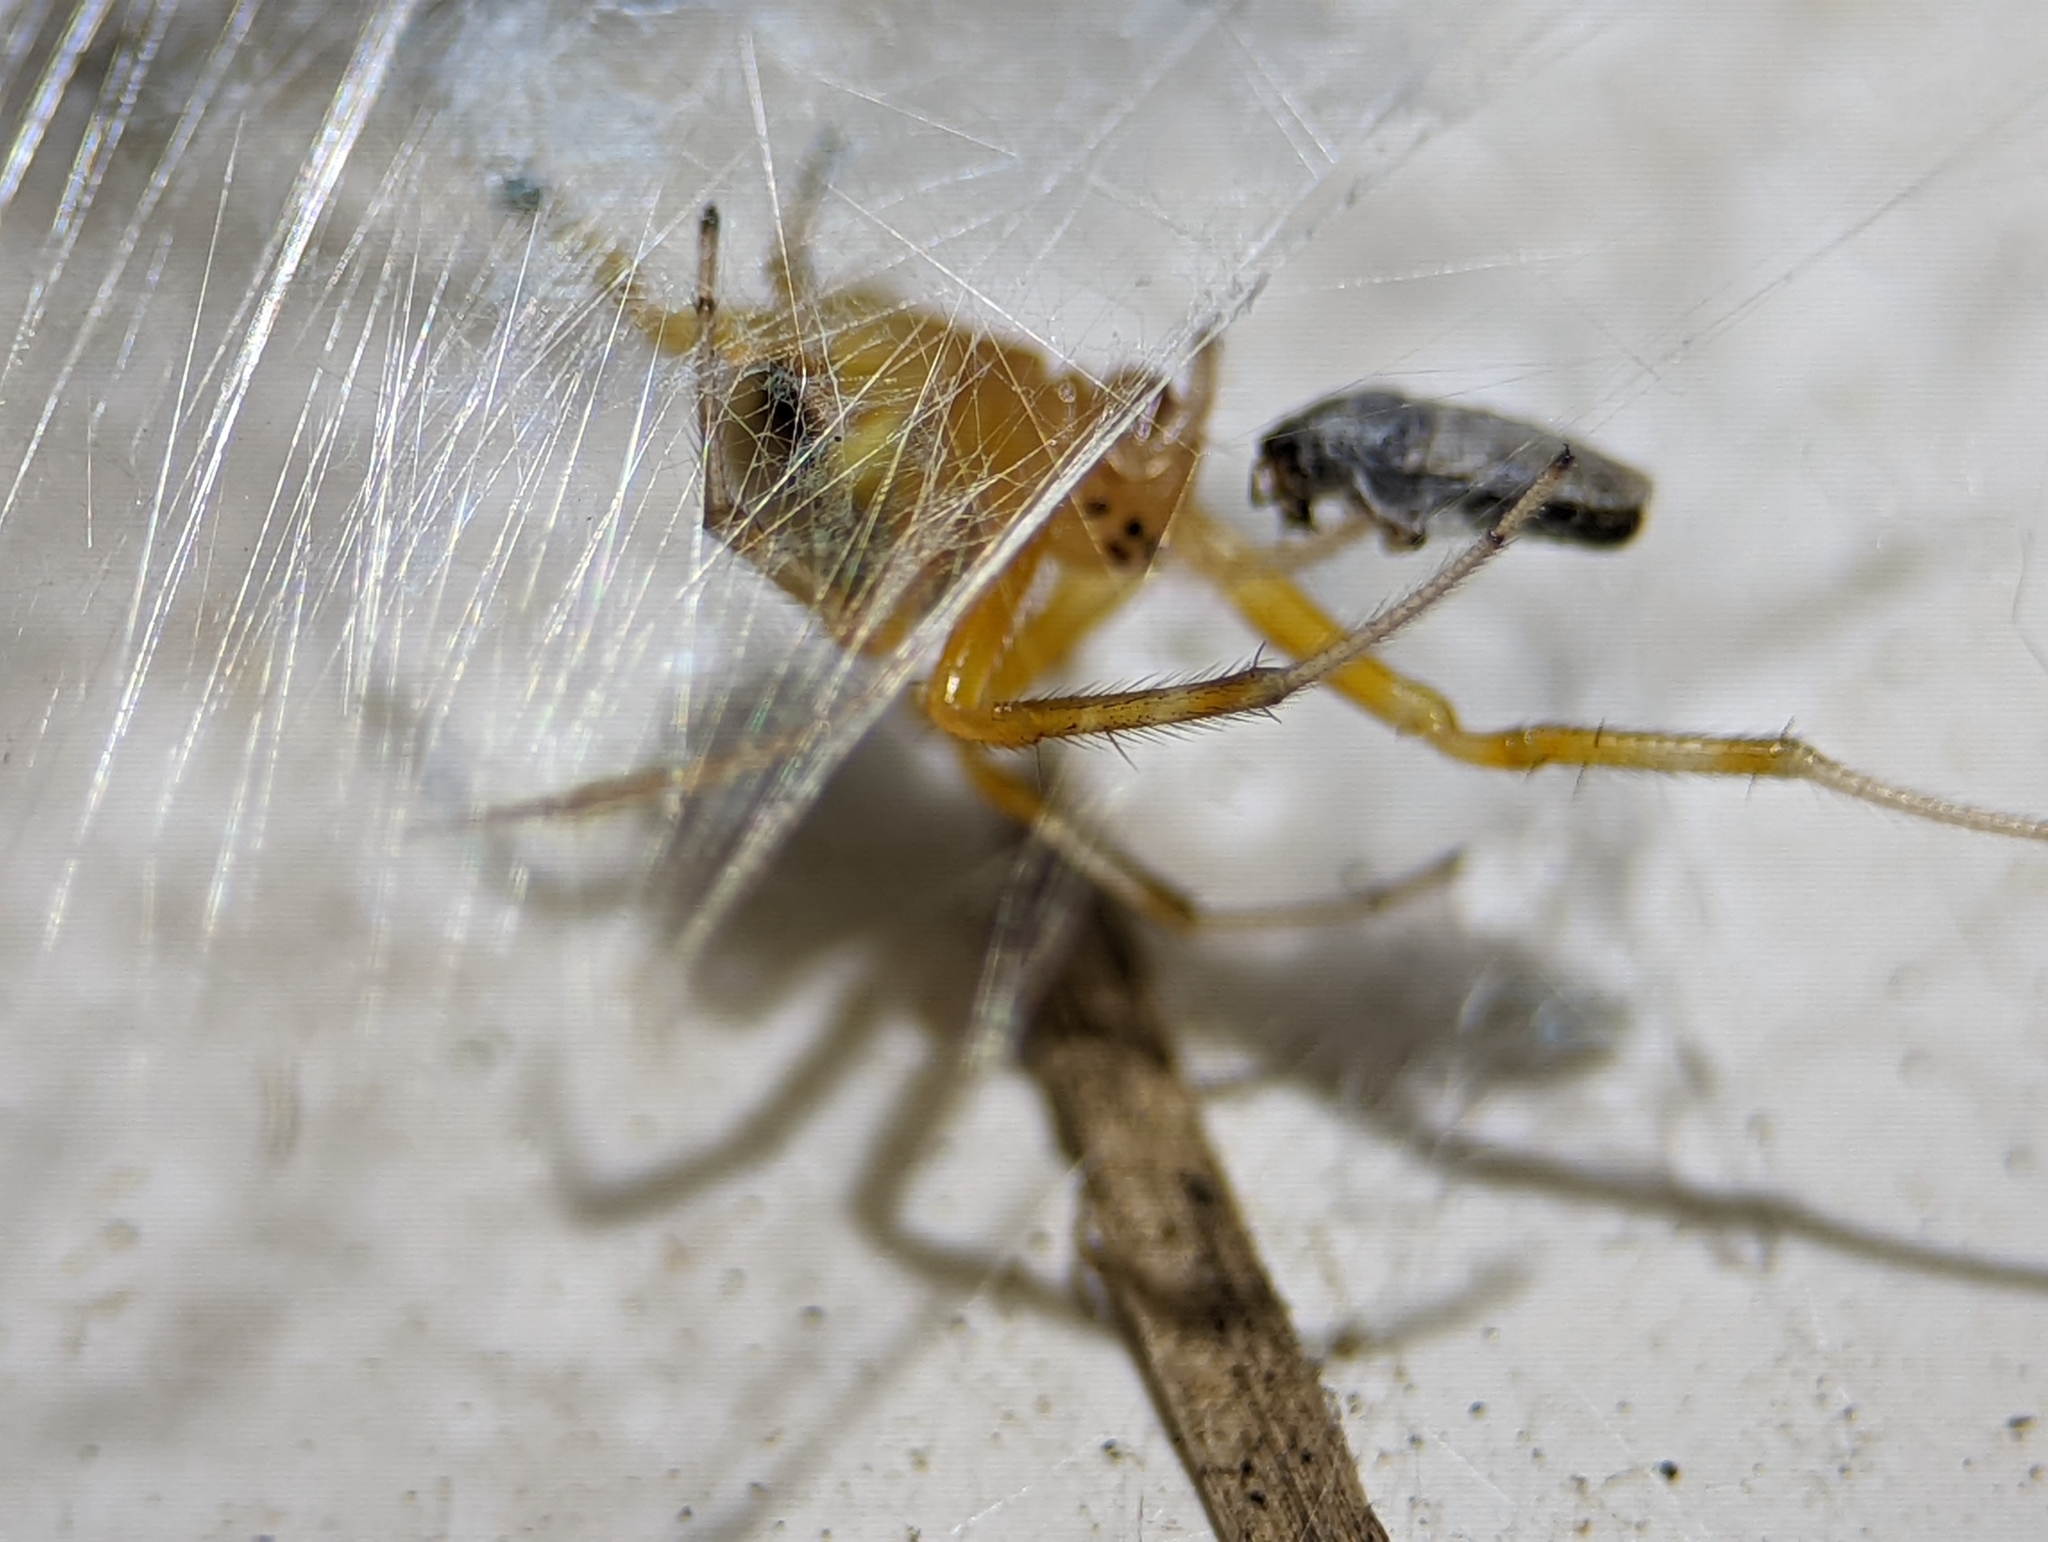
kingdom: Animalia
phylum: Arthropoda
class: Arachnida
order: Araneae
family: Araneidae
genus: Araneus
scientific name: Araneus thaddeus
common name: Lattice orbweaver
